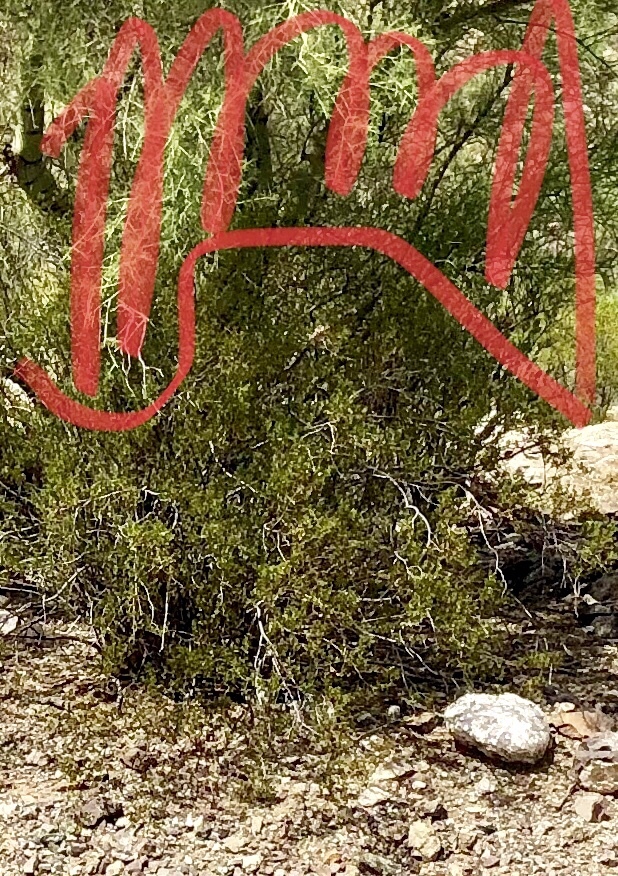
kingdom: Plantae
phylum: Tracheophyta
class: Magnoliopsida
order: Zygophyllales
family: Zygophyllaceae
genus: Larrea
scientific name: Larrea tridentata
